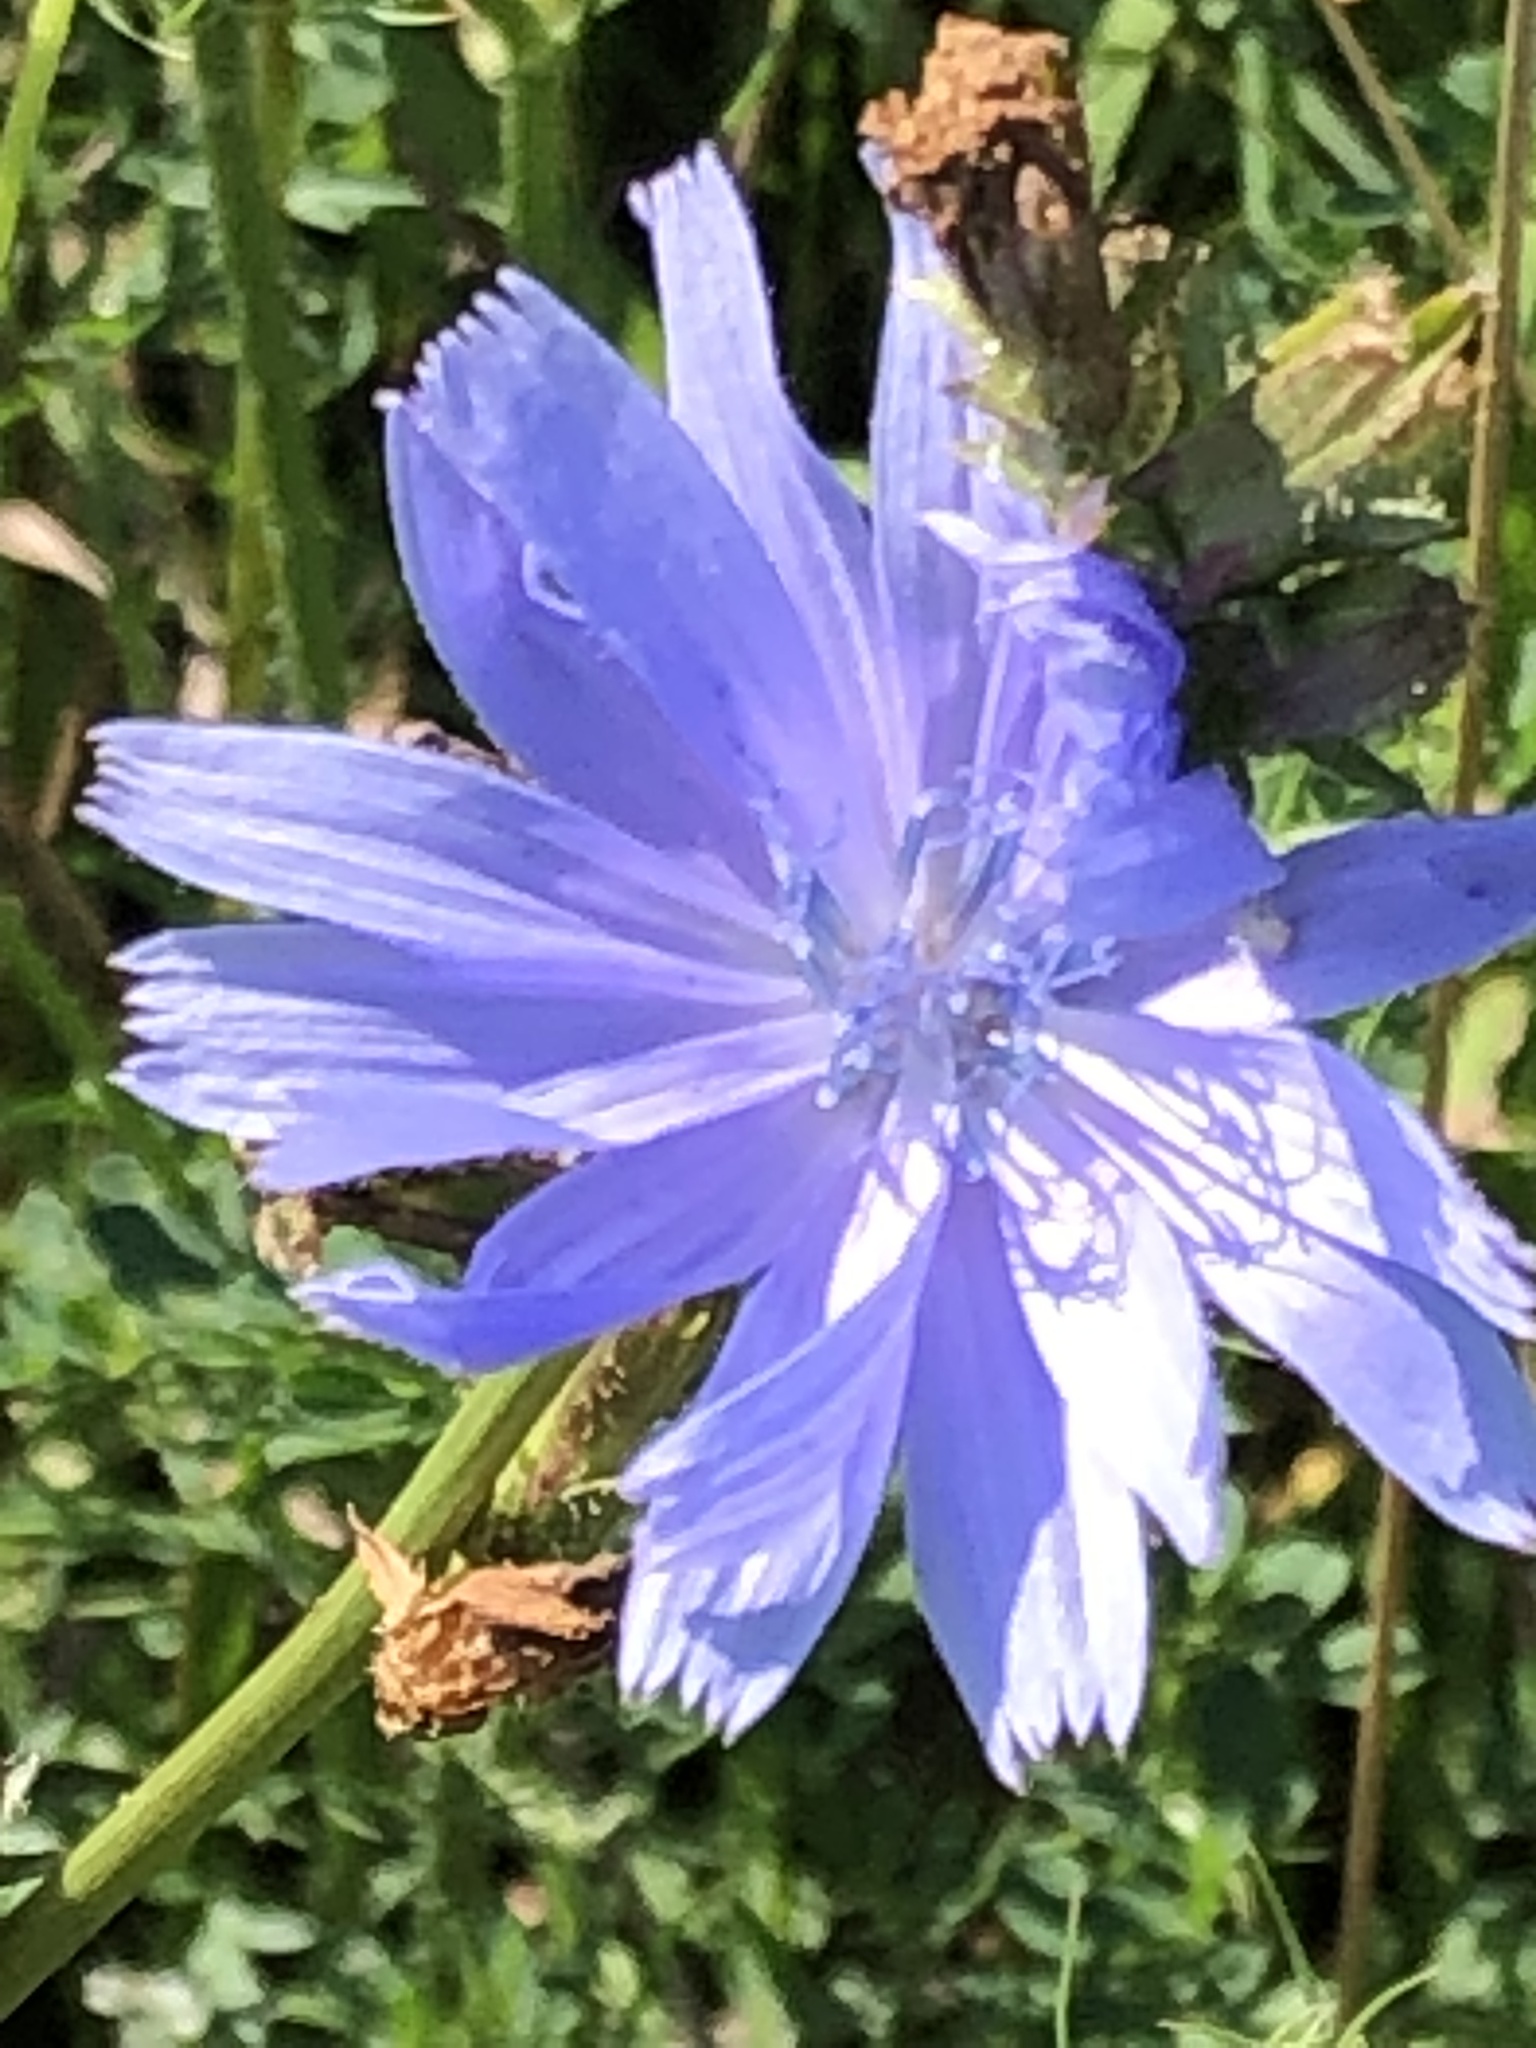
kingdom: Plantae
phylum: Tracheophyta
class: Magnoliopsida
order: Asterales
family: Asteraceae
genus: Cichorium
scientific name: Cichorium intybus
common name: Chicory
